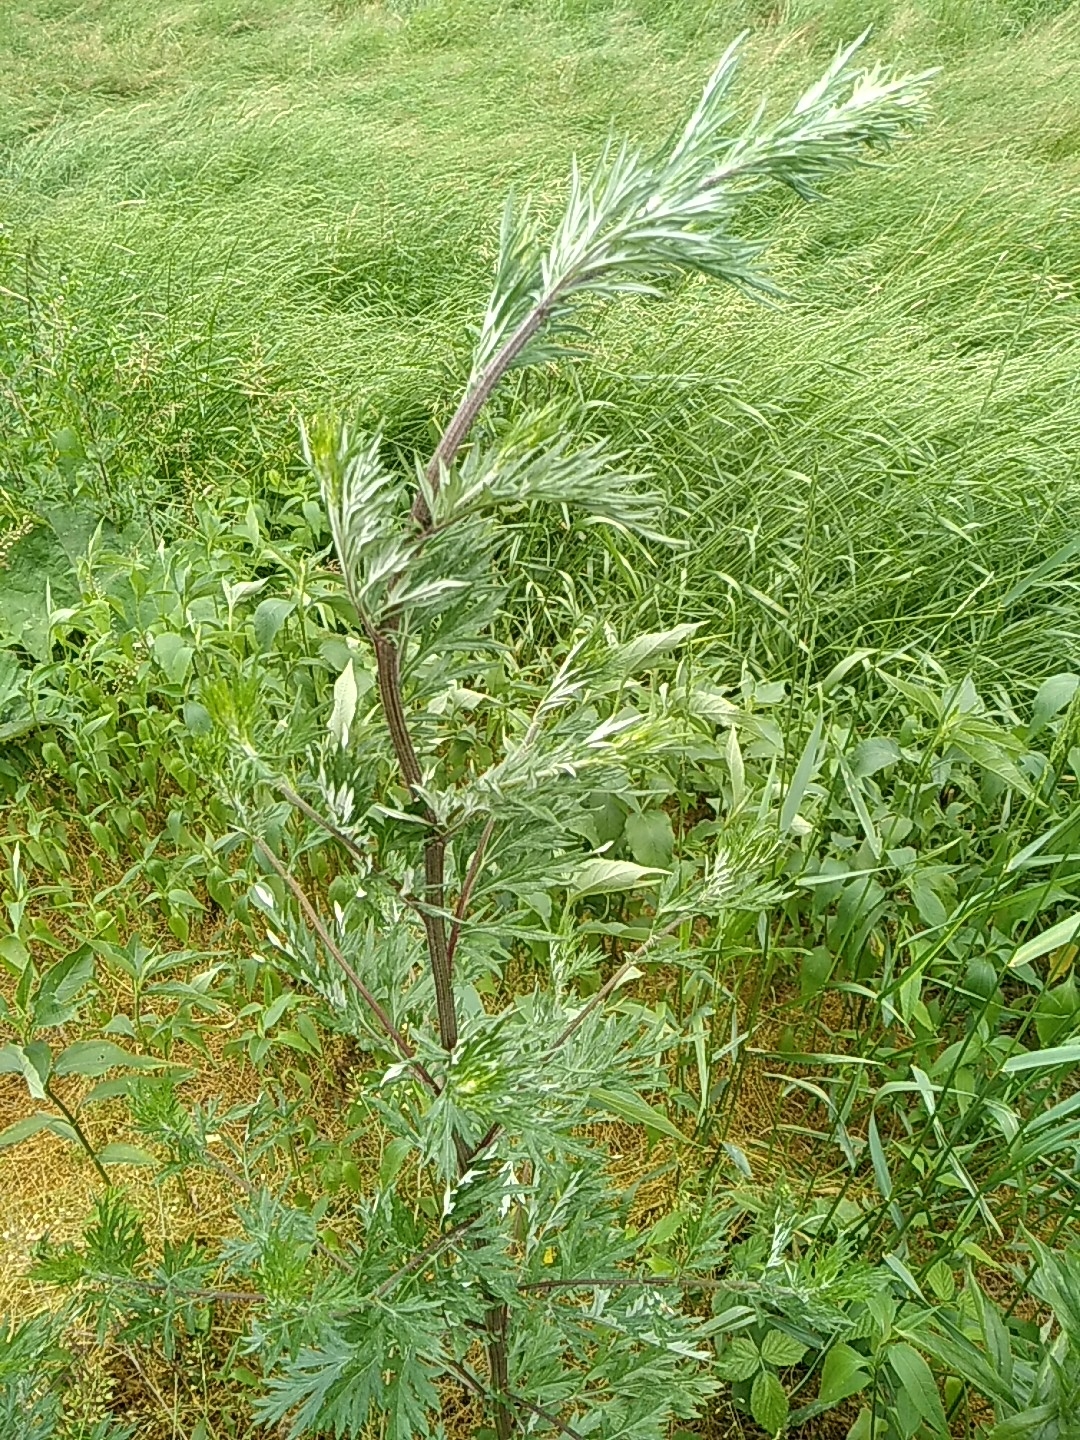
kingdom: Plantae
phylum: Tracheophyta
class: Magnoliopsida
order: Asterales
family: Asteraceae
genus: Artemisia
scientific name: Artemisia vulgaris
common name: Mugwort
